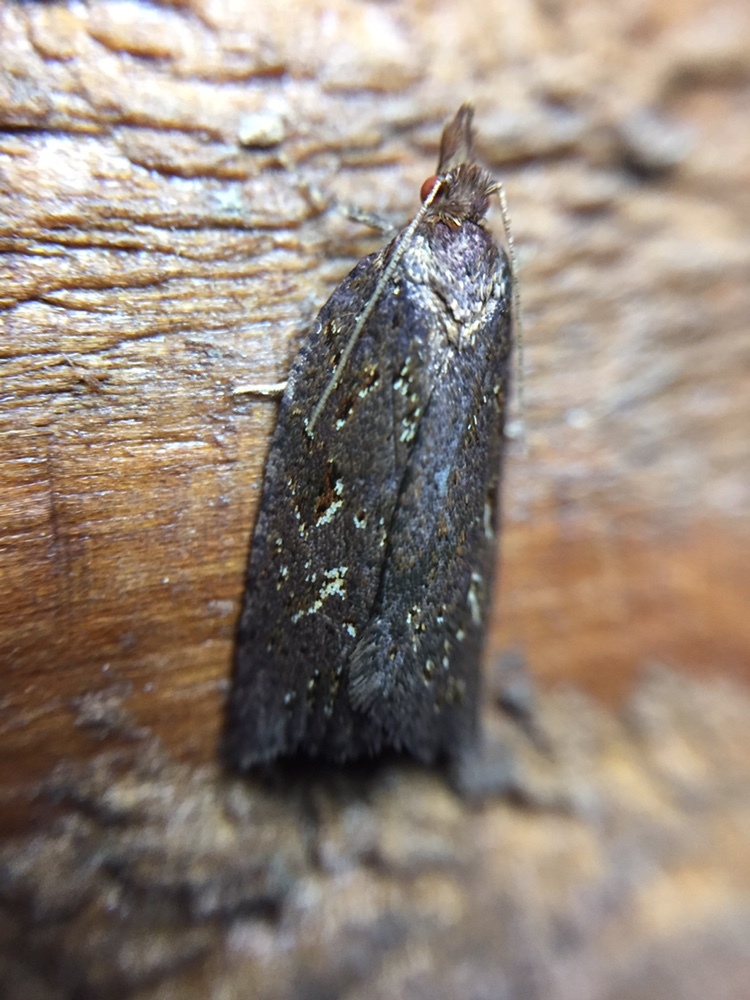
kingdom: Animalia
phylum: Arthropoda
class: Insecta
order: Lepidoptera
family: Tortricidae
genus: Ctenopseustis
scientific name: Ctenopseustis fraterna
